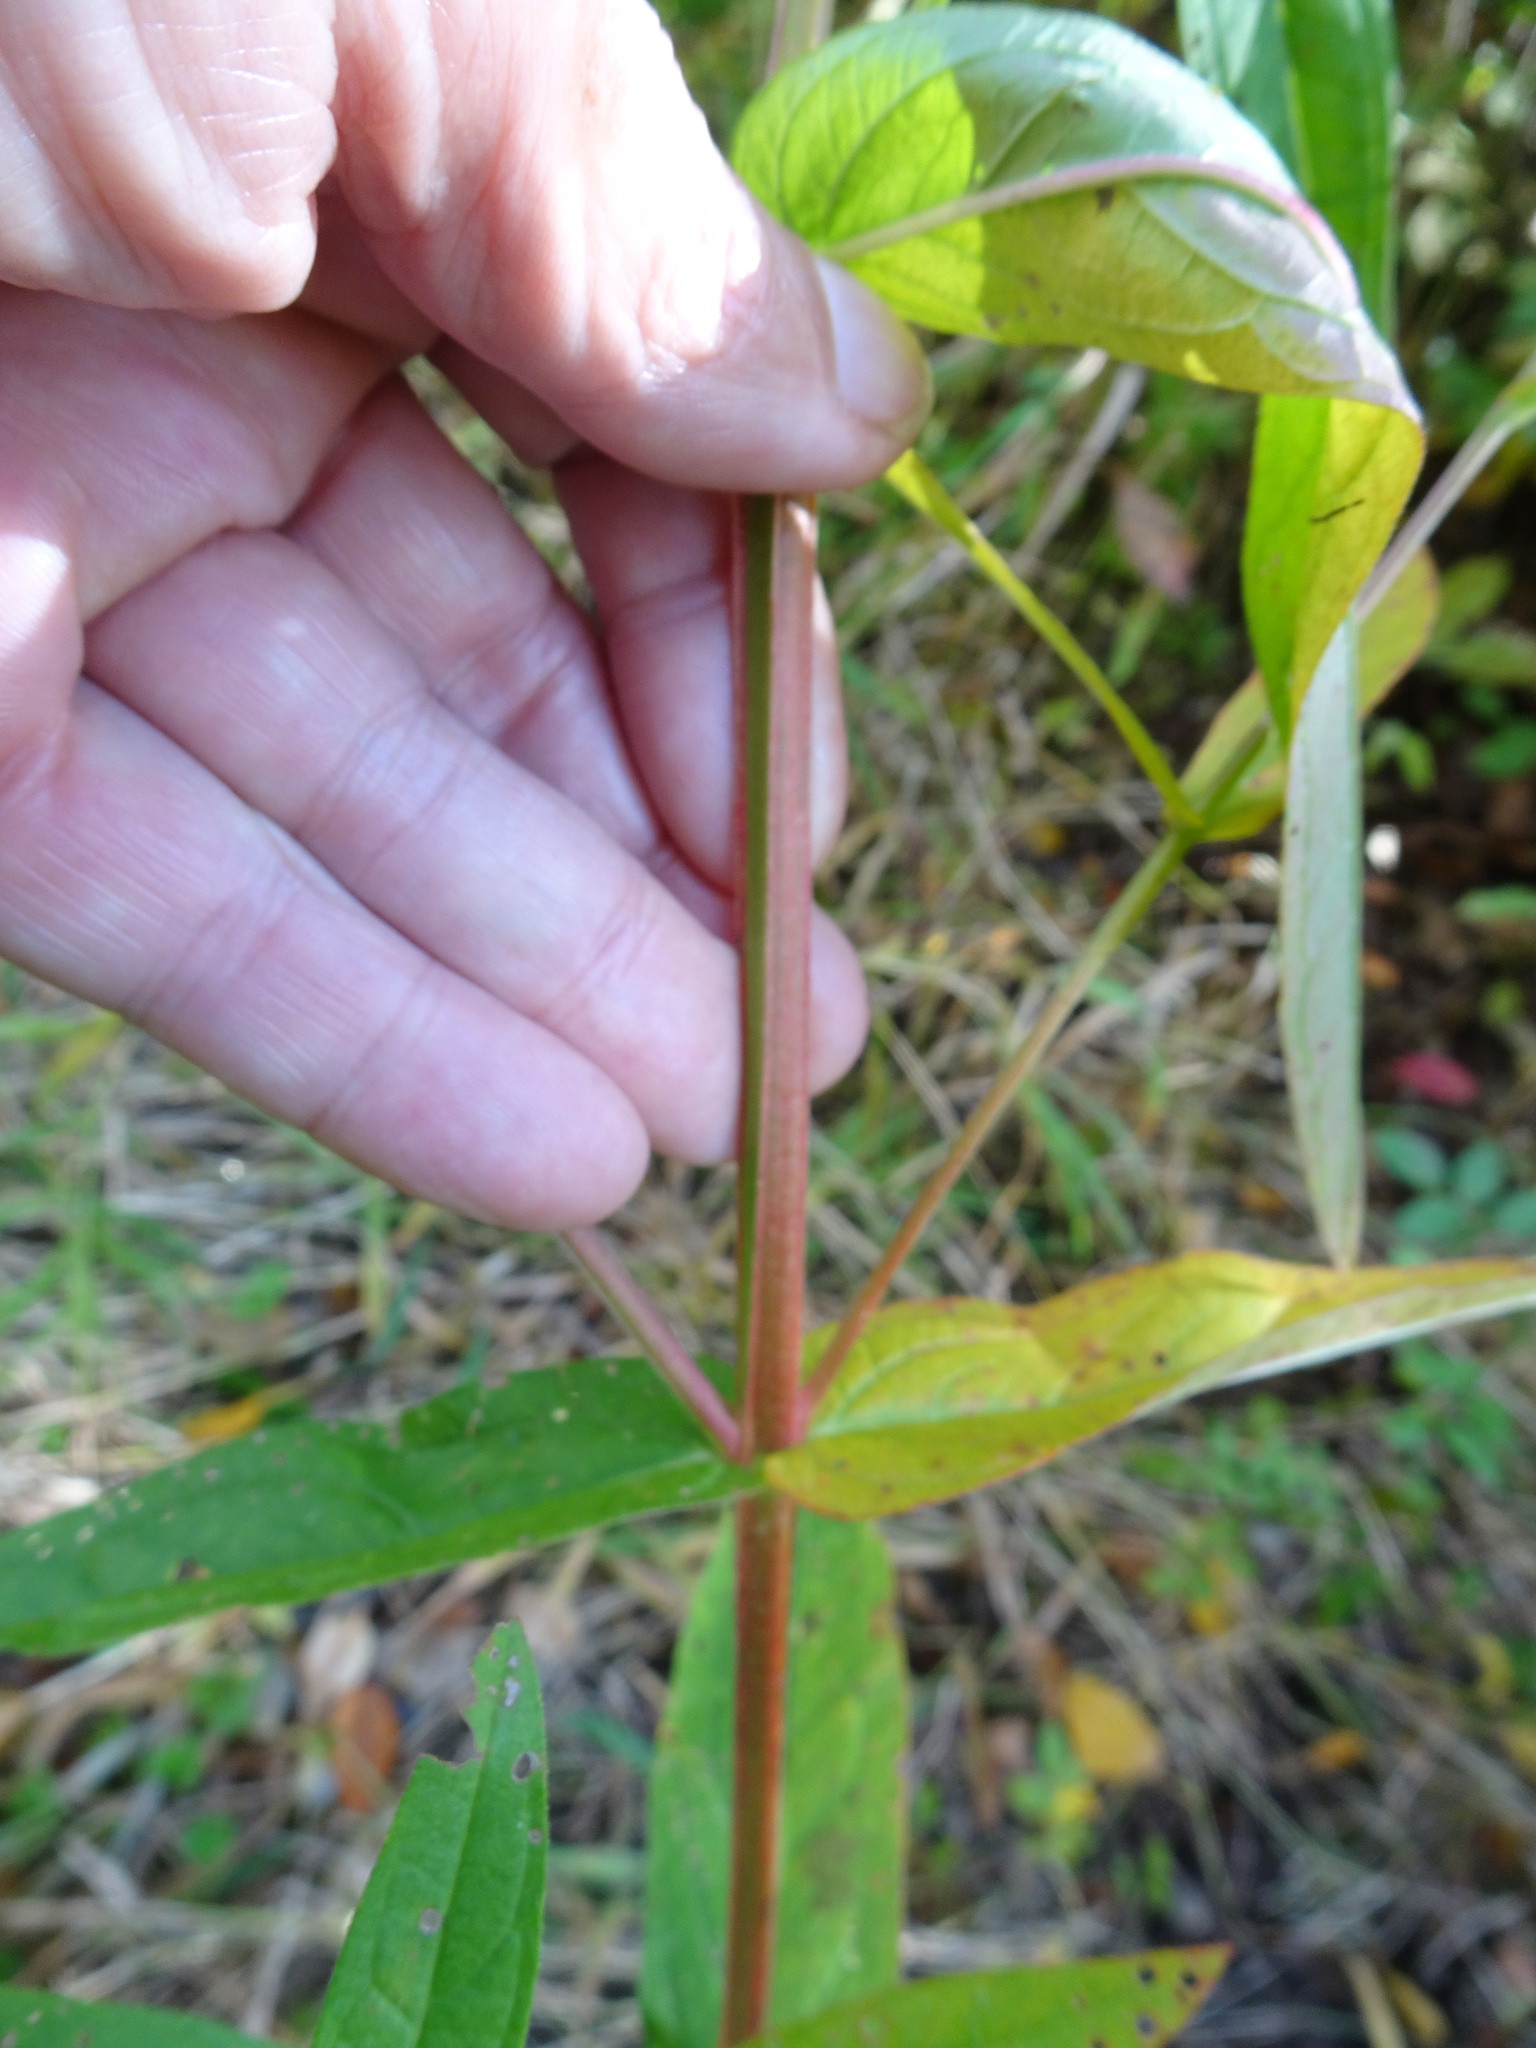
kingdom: Plantae
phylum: Tracheophyta
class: Magnoliopsida
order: Myrtales
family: Lythraceae
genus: Lythrum
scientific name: Lythrum salicaria
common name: Purple loosestrife
